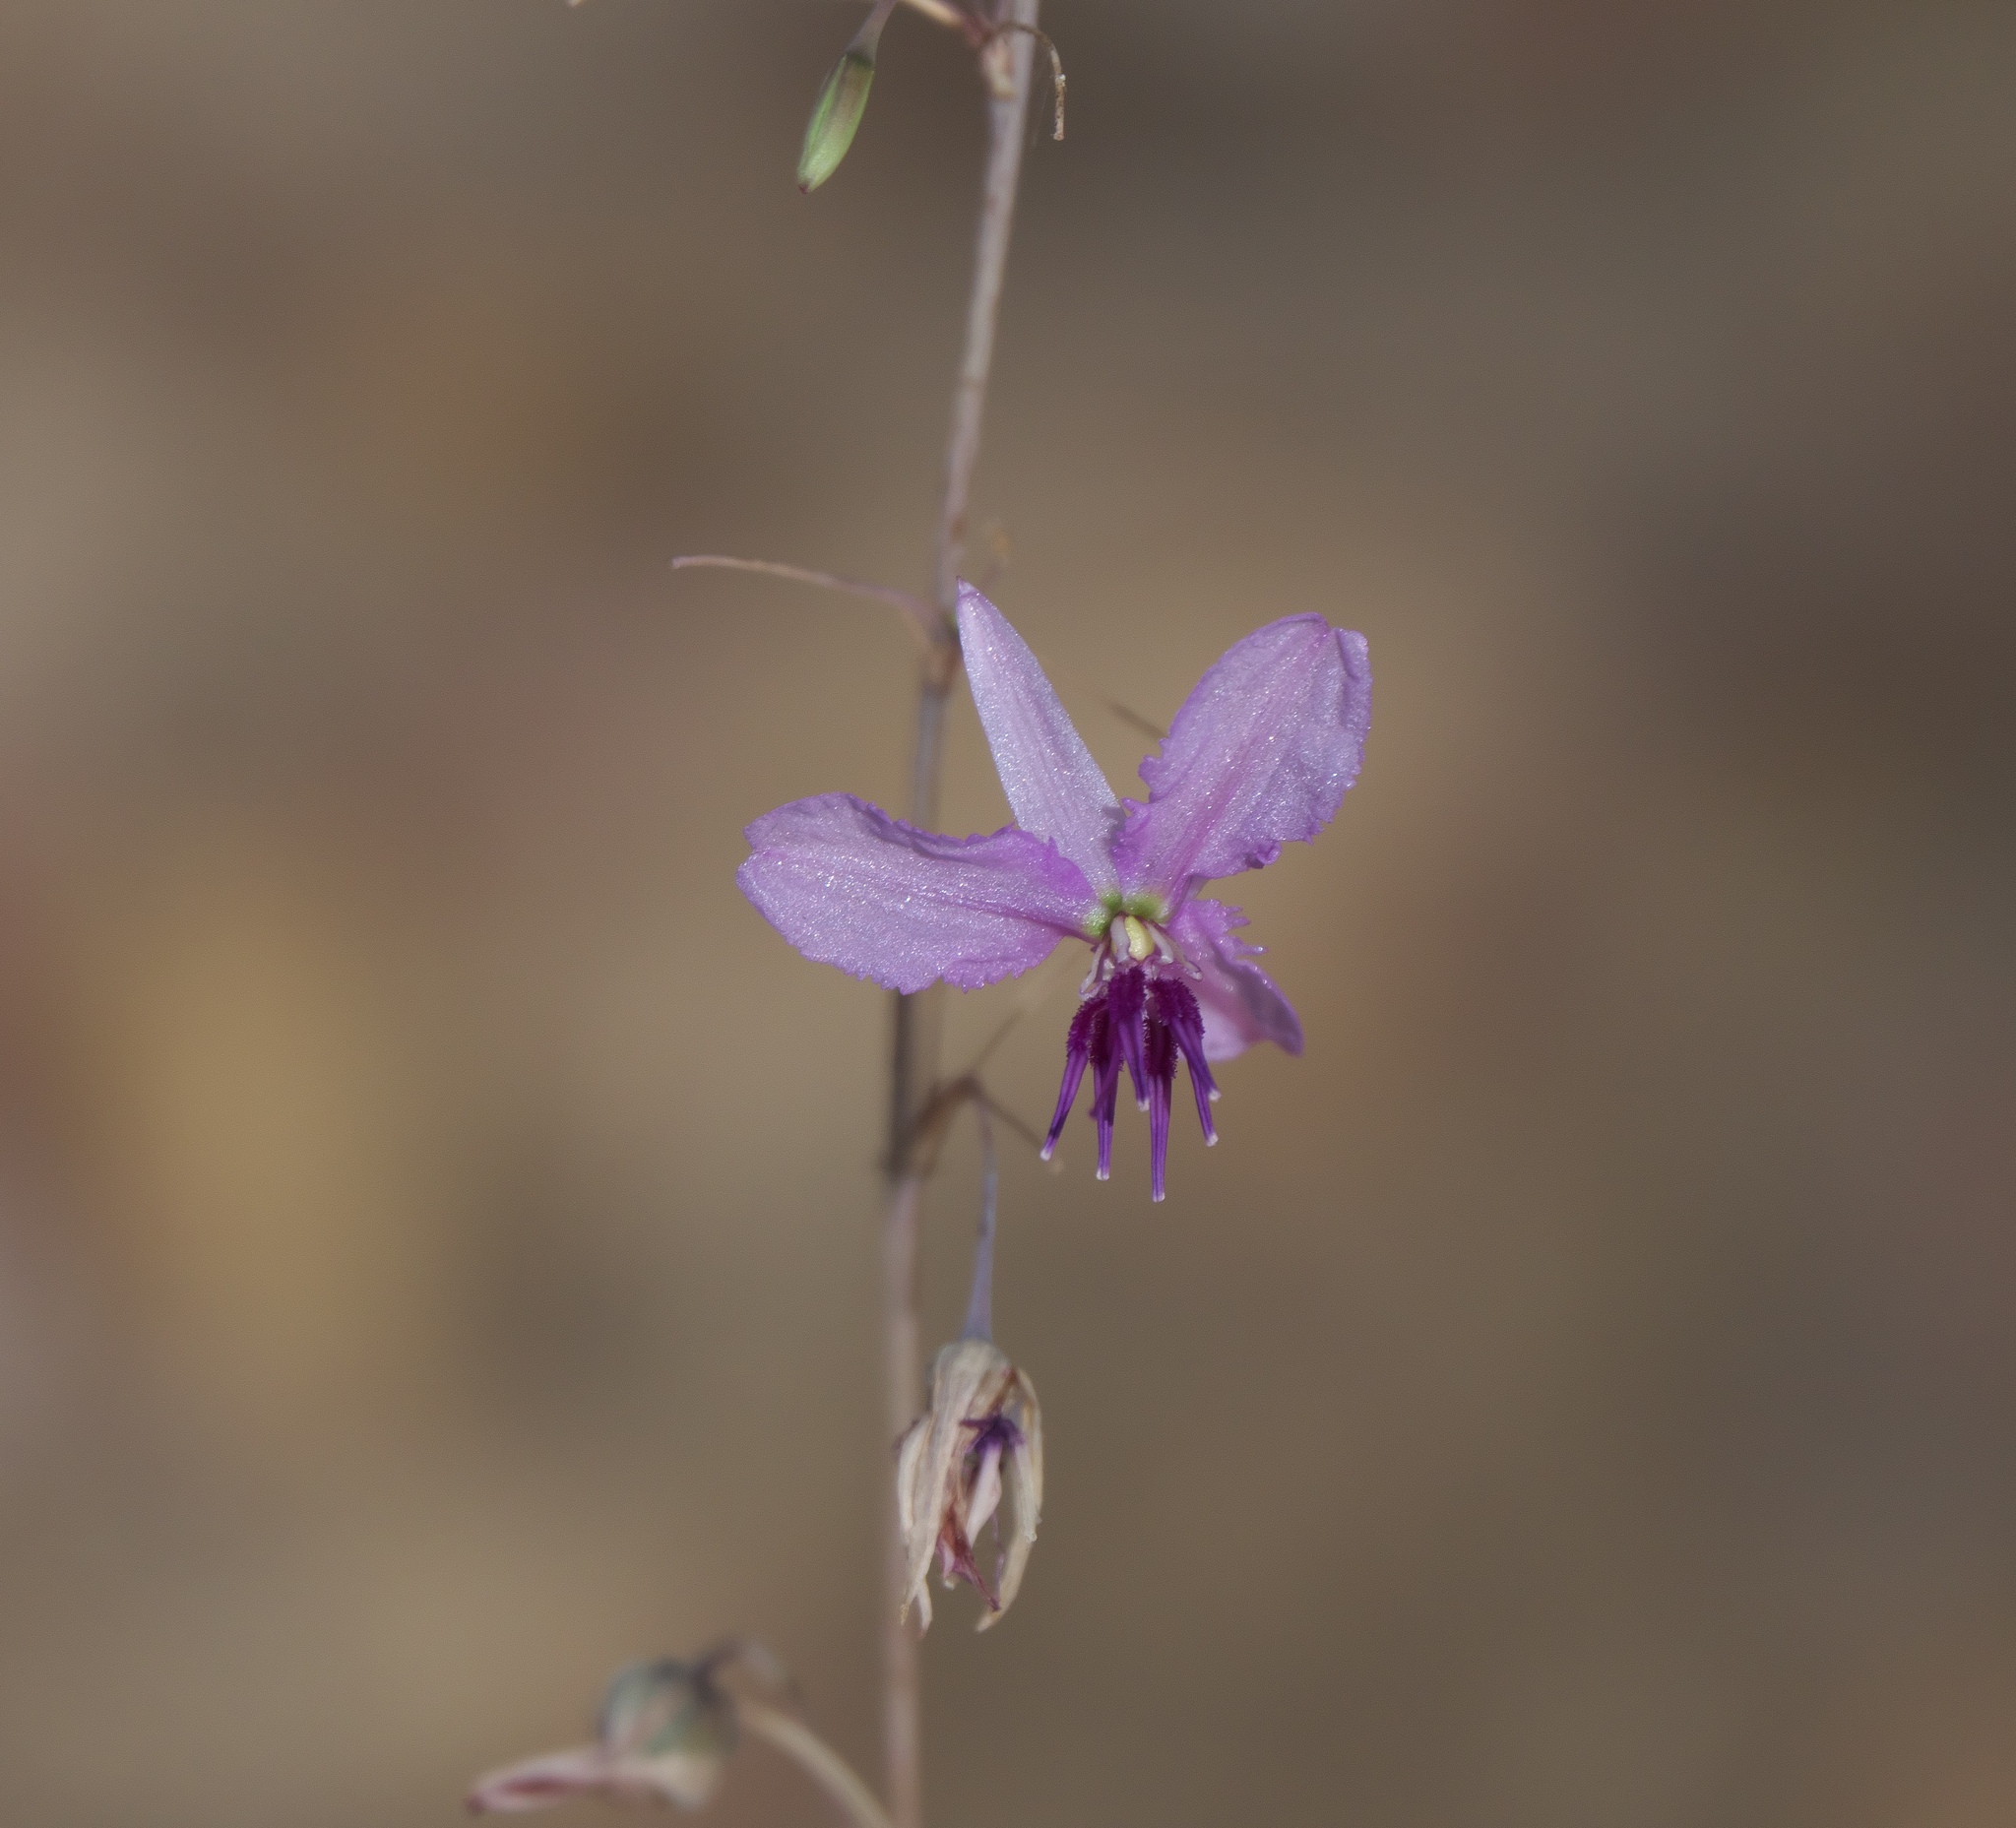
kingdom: Plantae
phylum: Tracheophyta
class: Liliopsida
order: Asparagales
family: Asparagaceae
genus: Dichopogon
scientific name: Dichopogon capillipes
